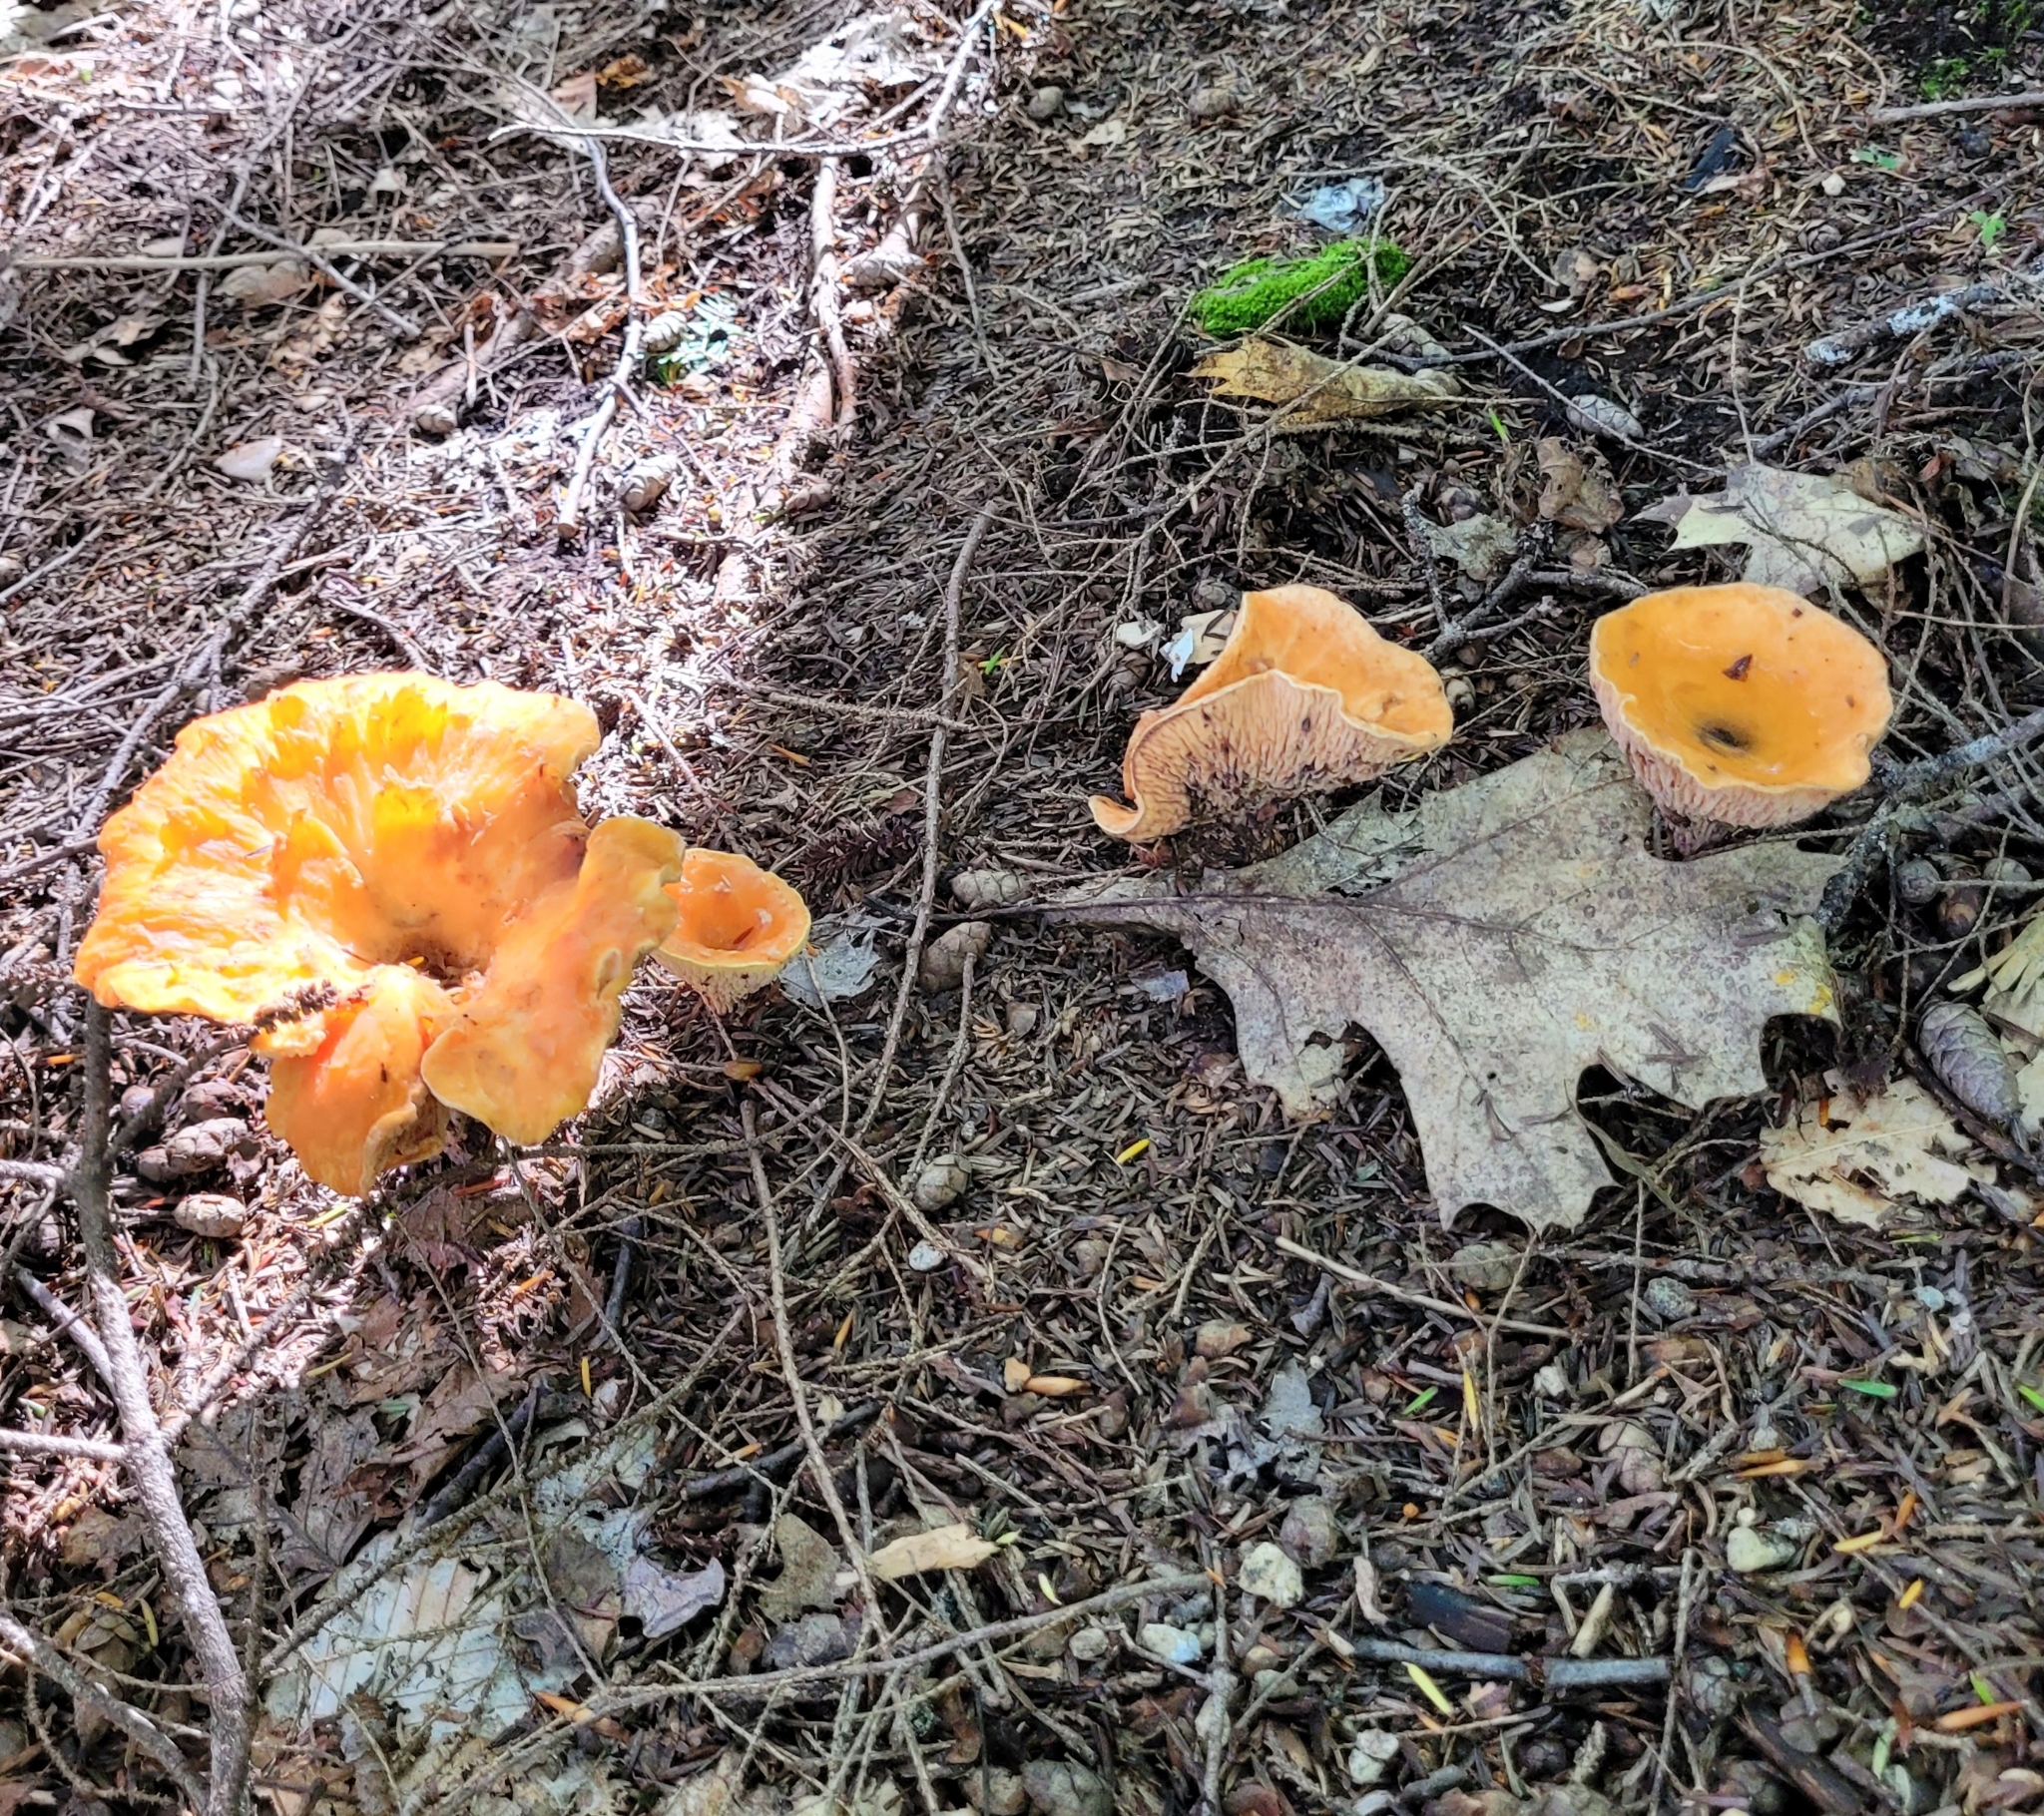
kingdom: Fungi
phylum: Basidiomycota
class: Agaricomycetes
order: Gomphales
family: Gomphaceae
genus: Turbinellus
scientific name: Turbinellus floccosus
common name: Scaly chanterelle
